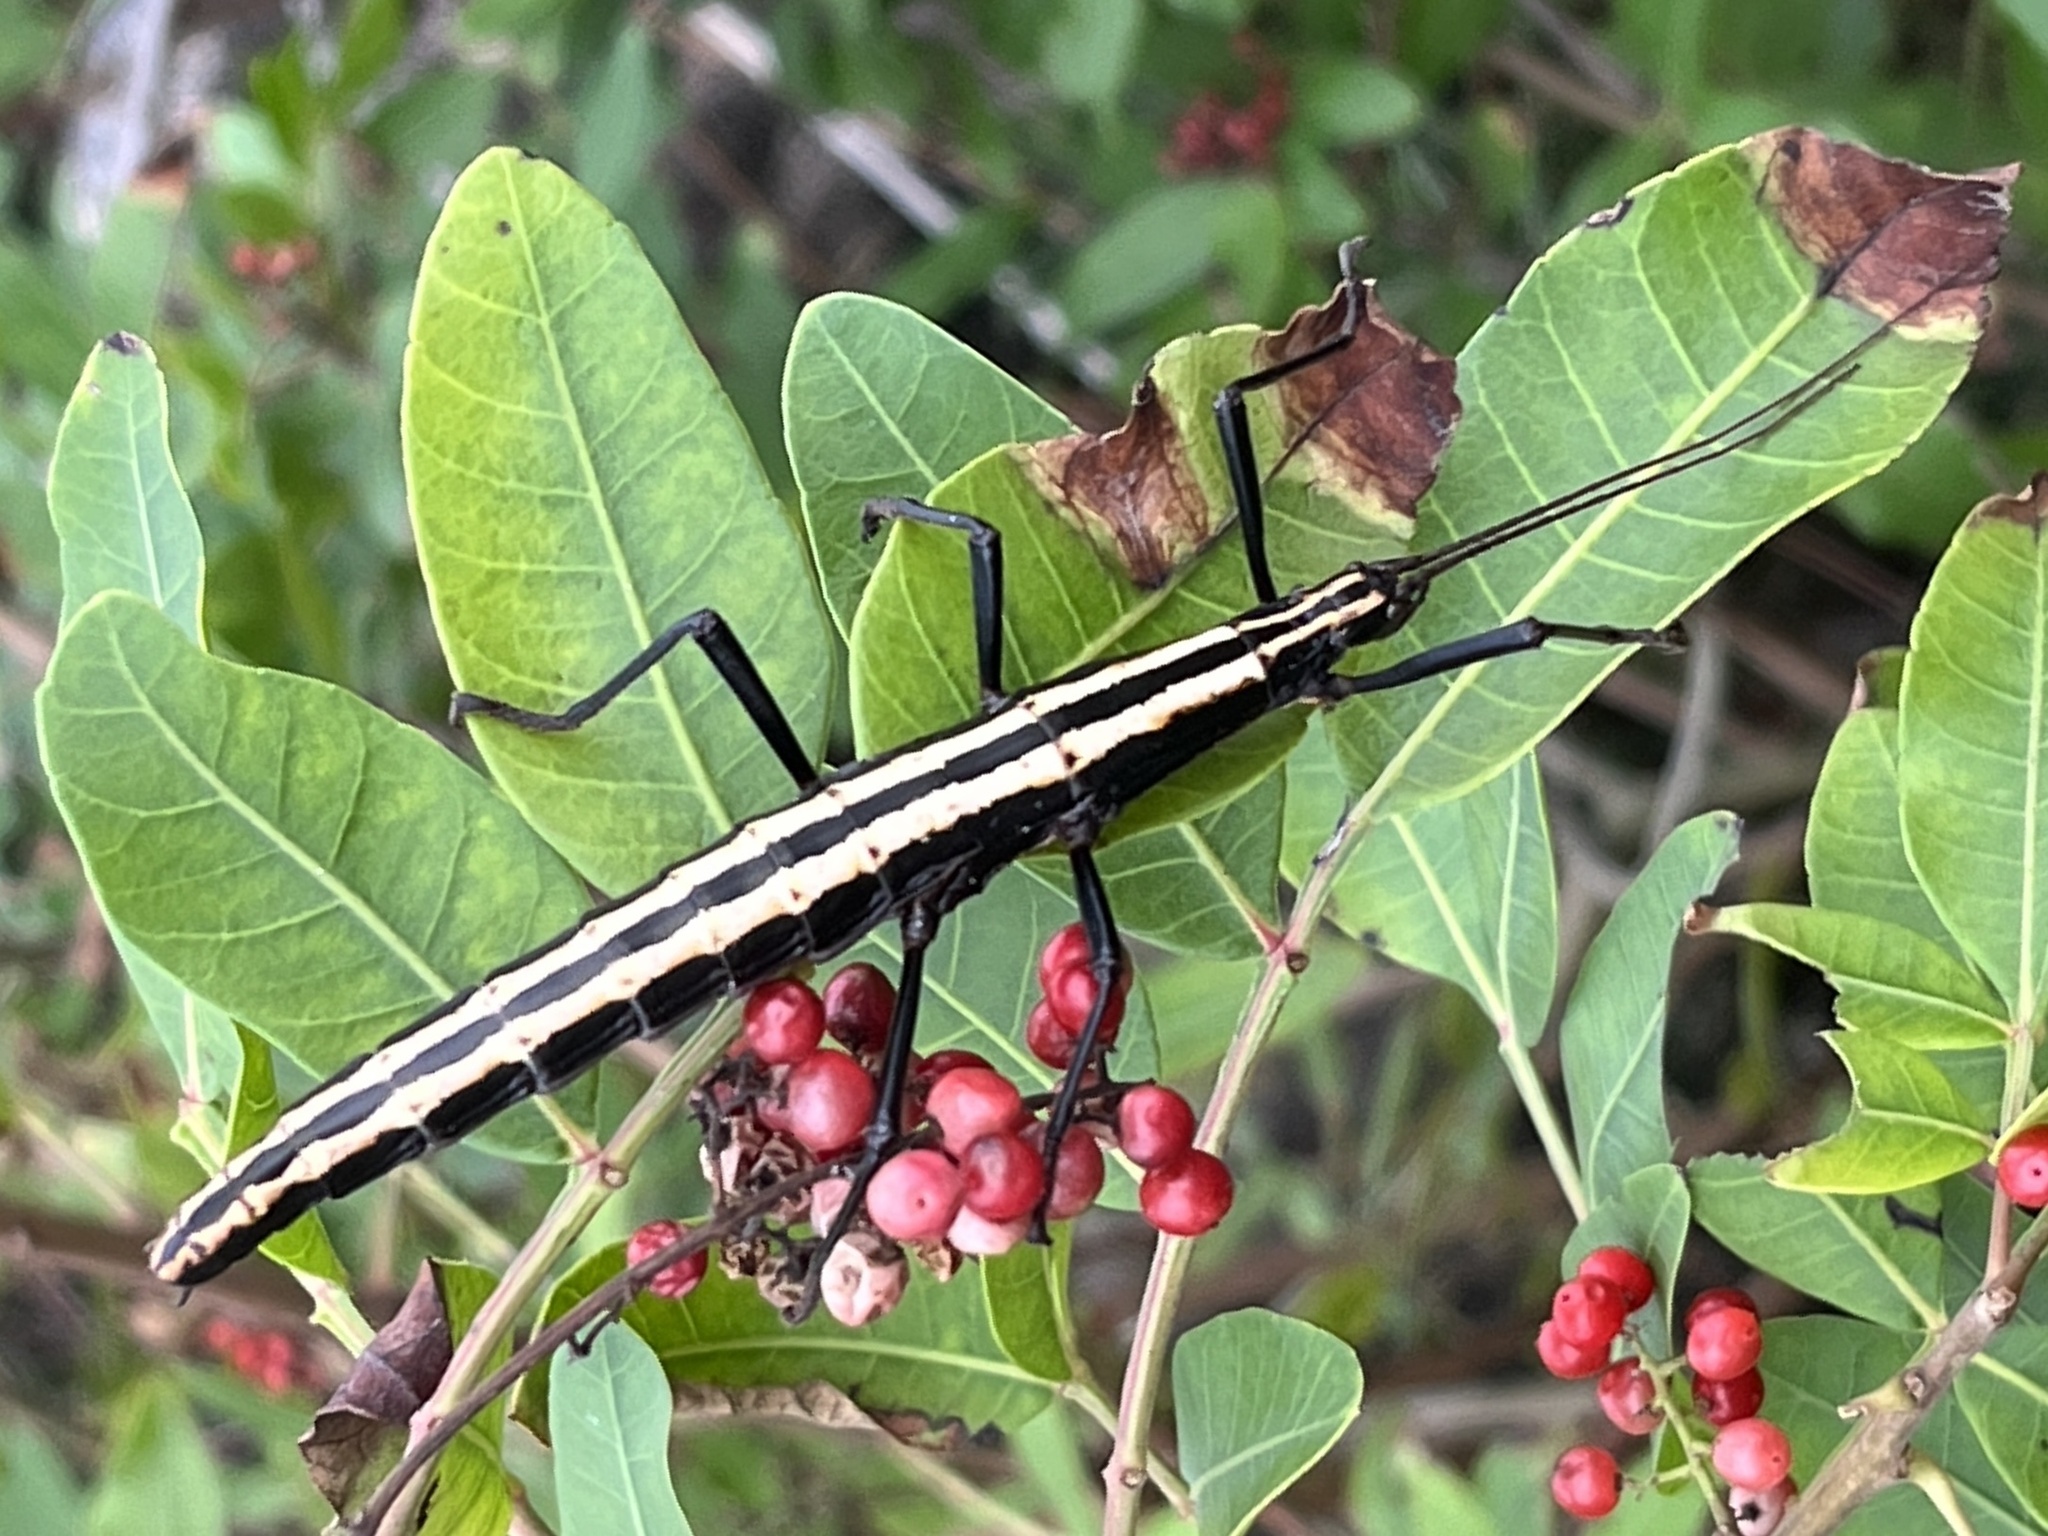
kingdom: Animalia
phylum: Arthropoda
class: Insecta
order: Phasmida
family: Pseudophasmatidae
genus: Anisomorpha
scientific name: Anisomorpha buprestoides
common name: Florida stick insect
